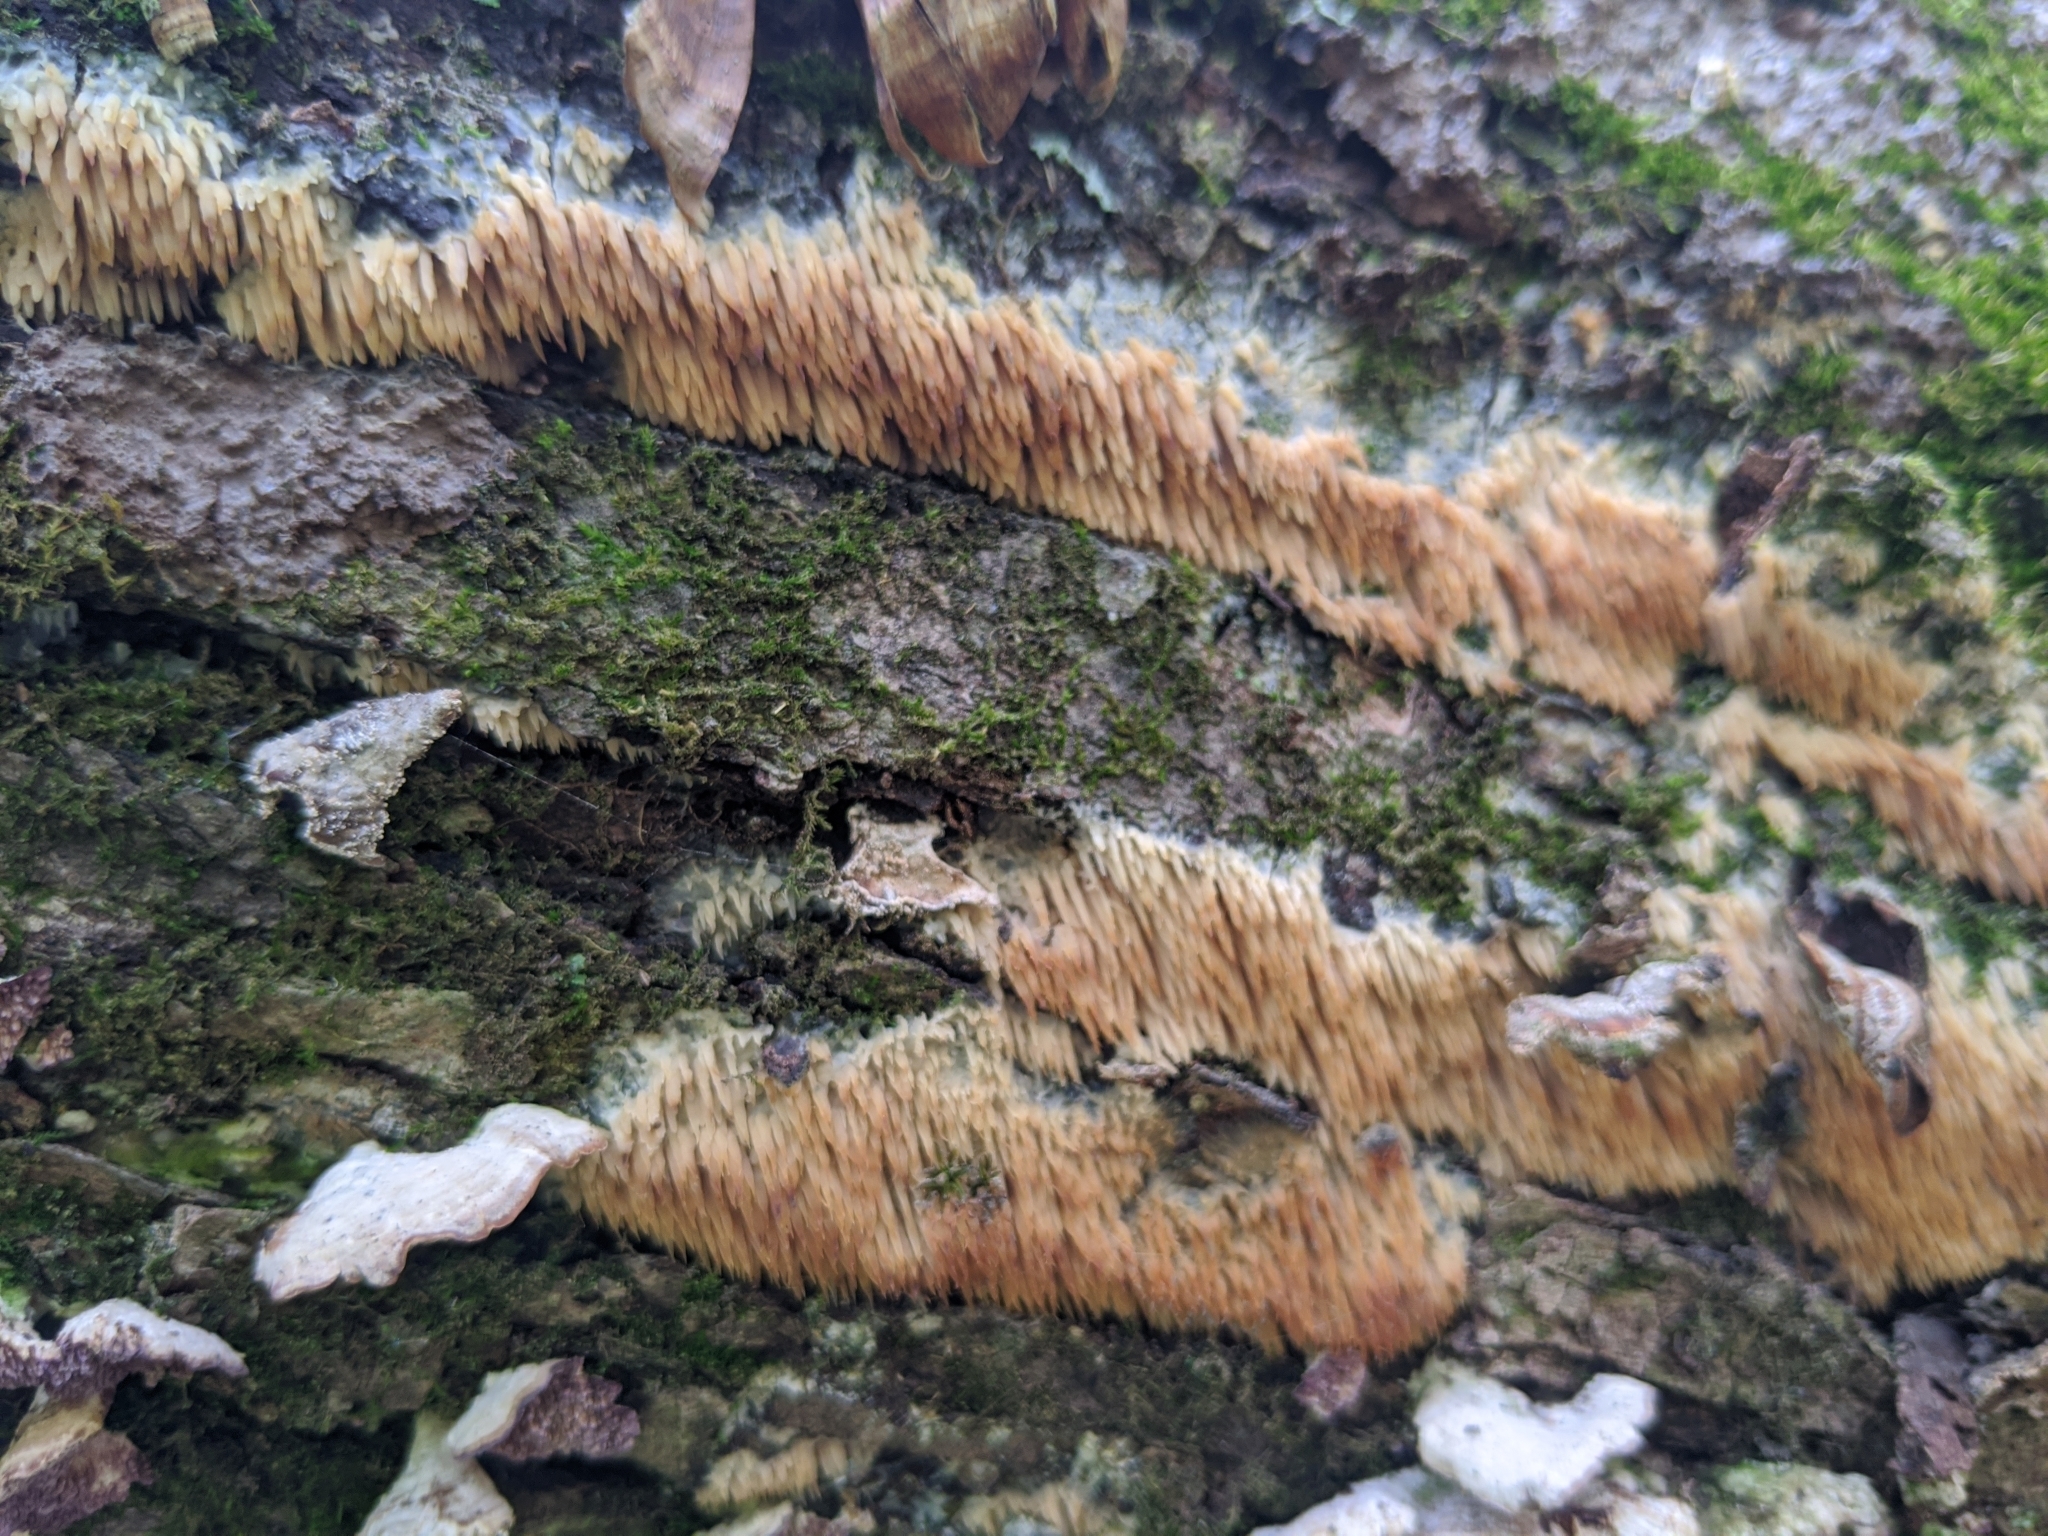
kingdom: Fungi
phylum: Basidiomycota
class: Agaricomycetes
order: Agaricales
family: Radulomycetaceae
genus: Radulomyces
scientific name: Radulomyces copelandii
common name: Asian beauty
